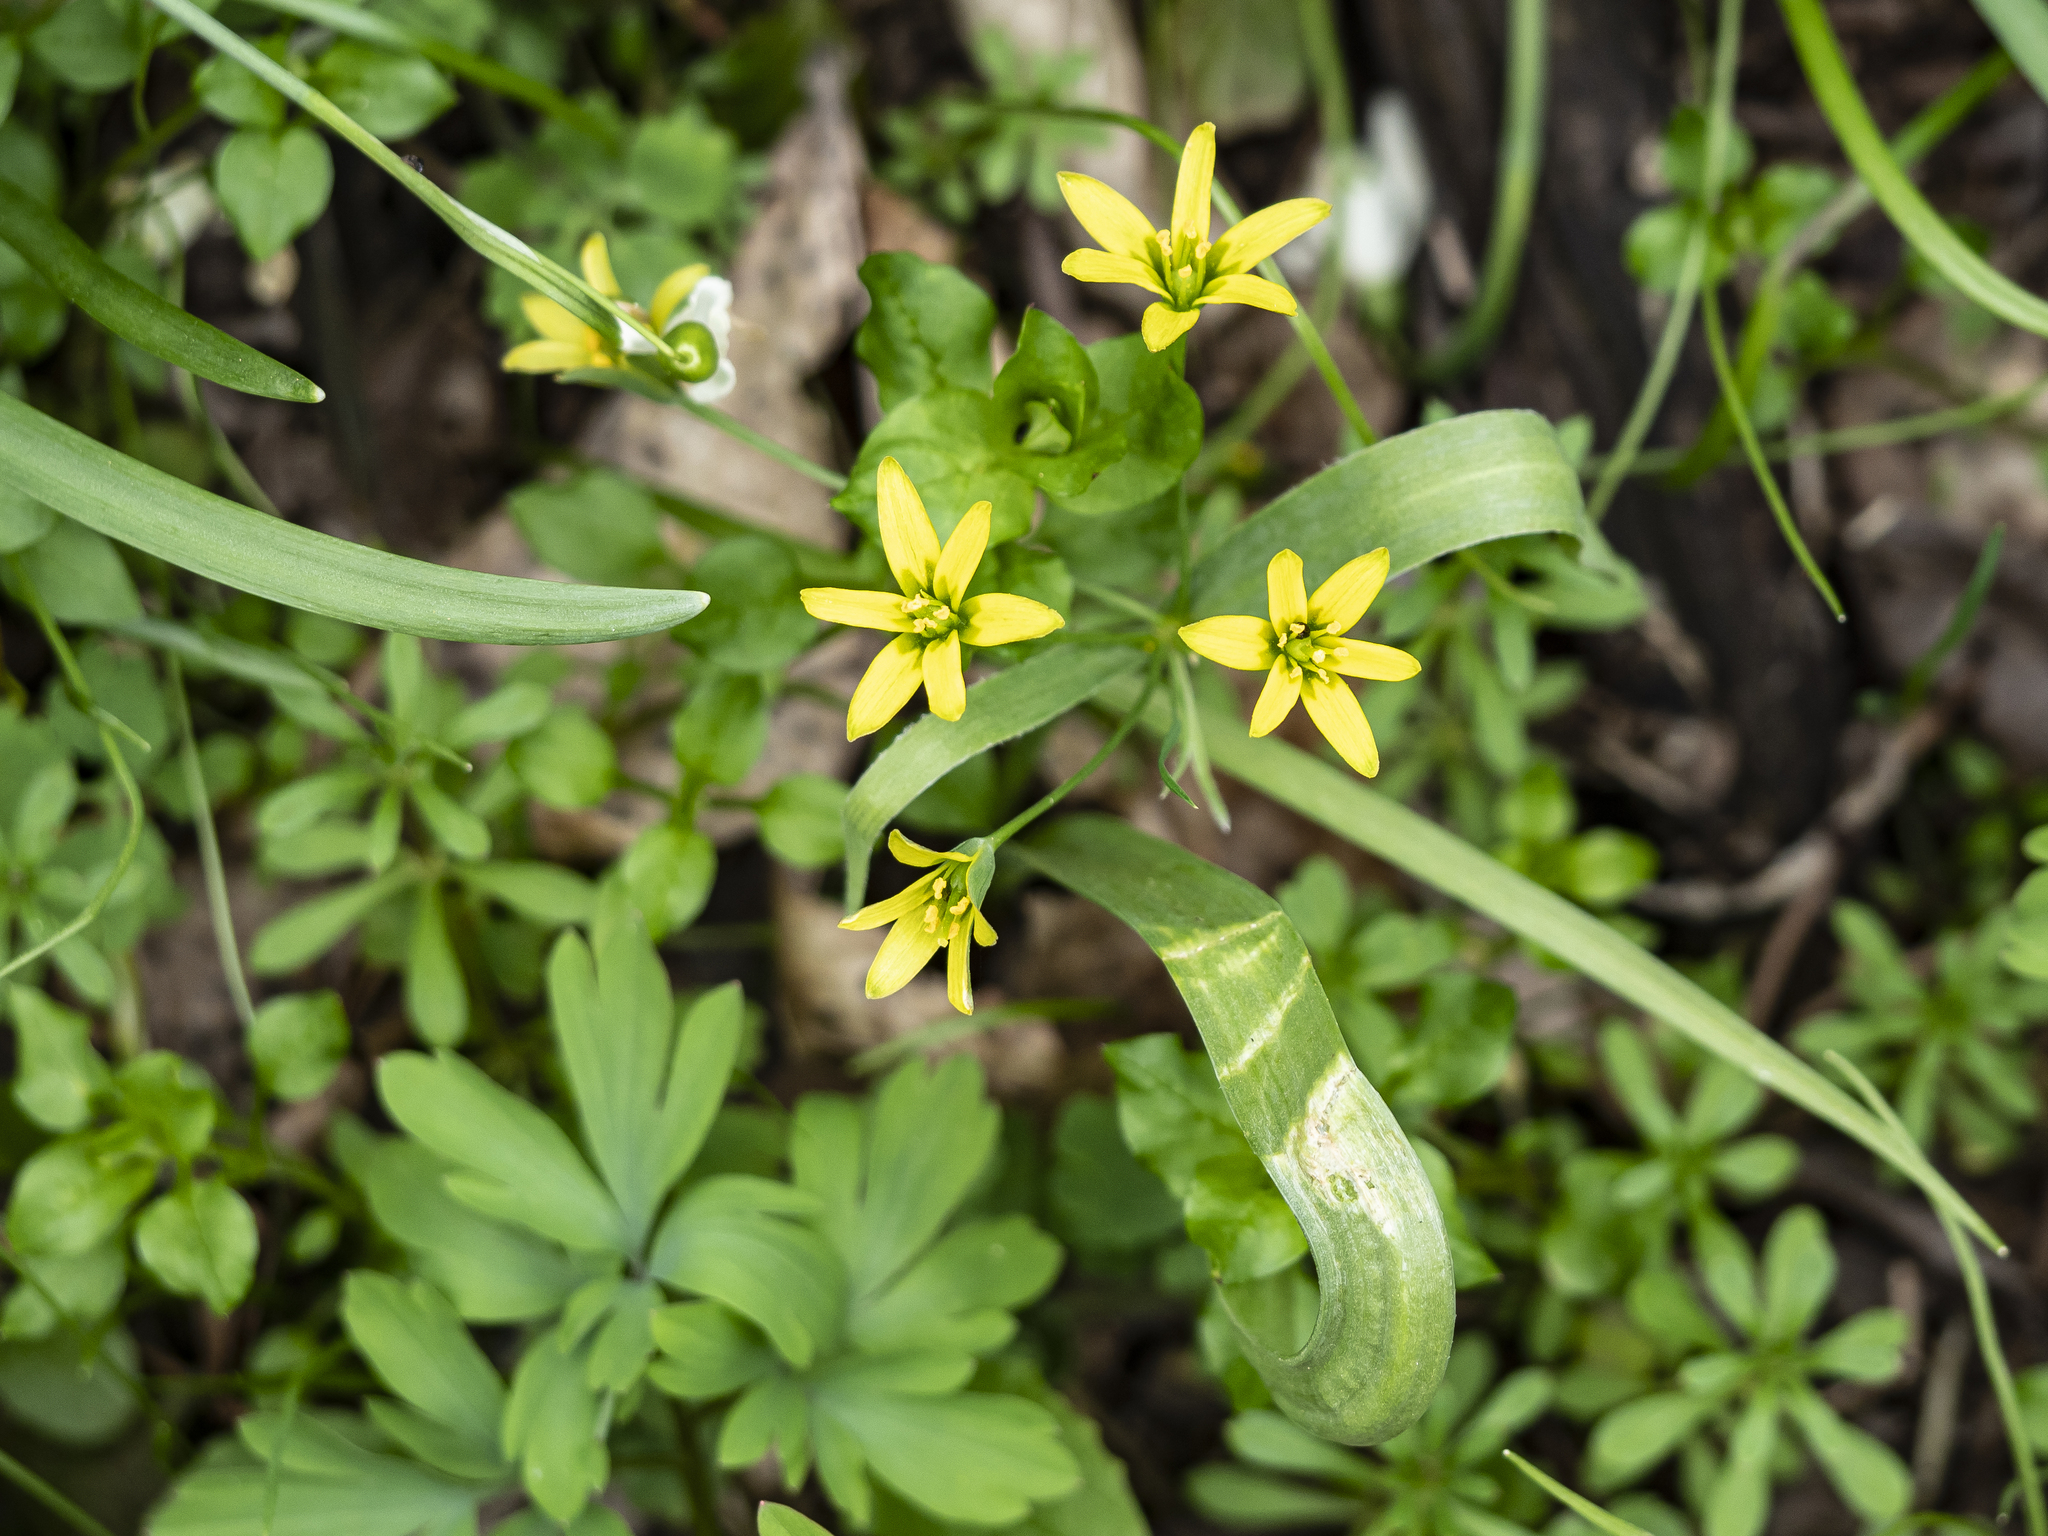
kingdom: Plantae
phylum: Tracheophyta
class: Liliopsida
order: Liliales
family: Liliaceae
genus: Gagea
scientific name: Gagea lutea
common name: Yellow star-of-bethlehem
